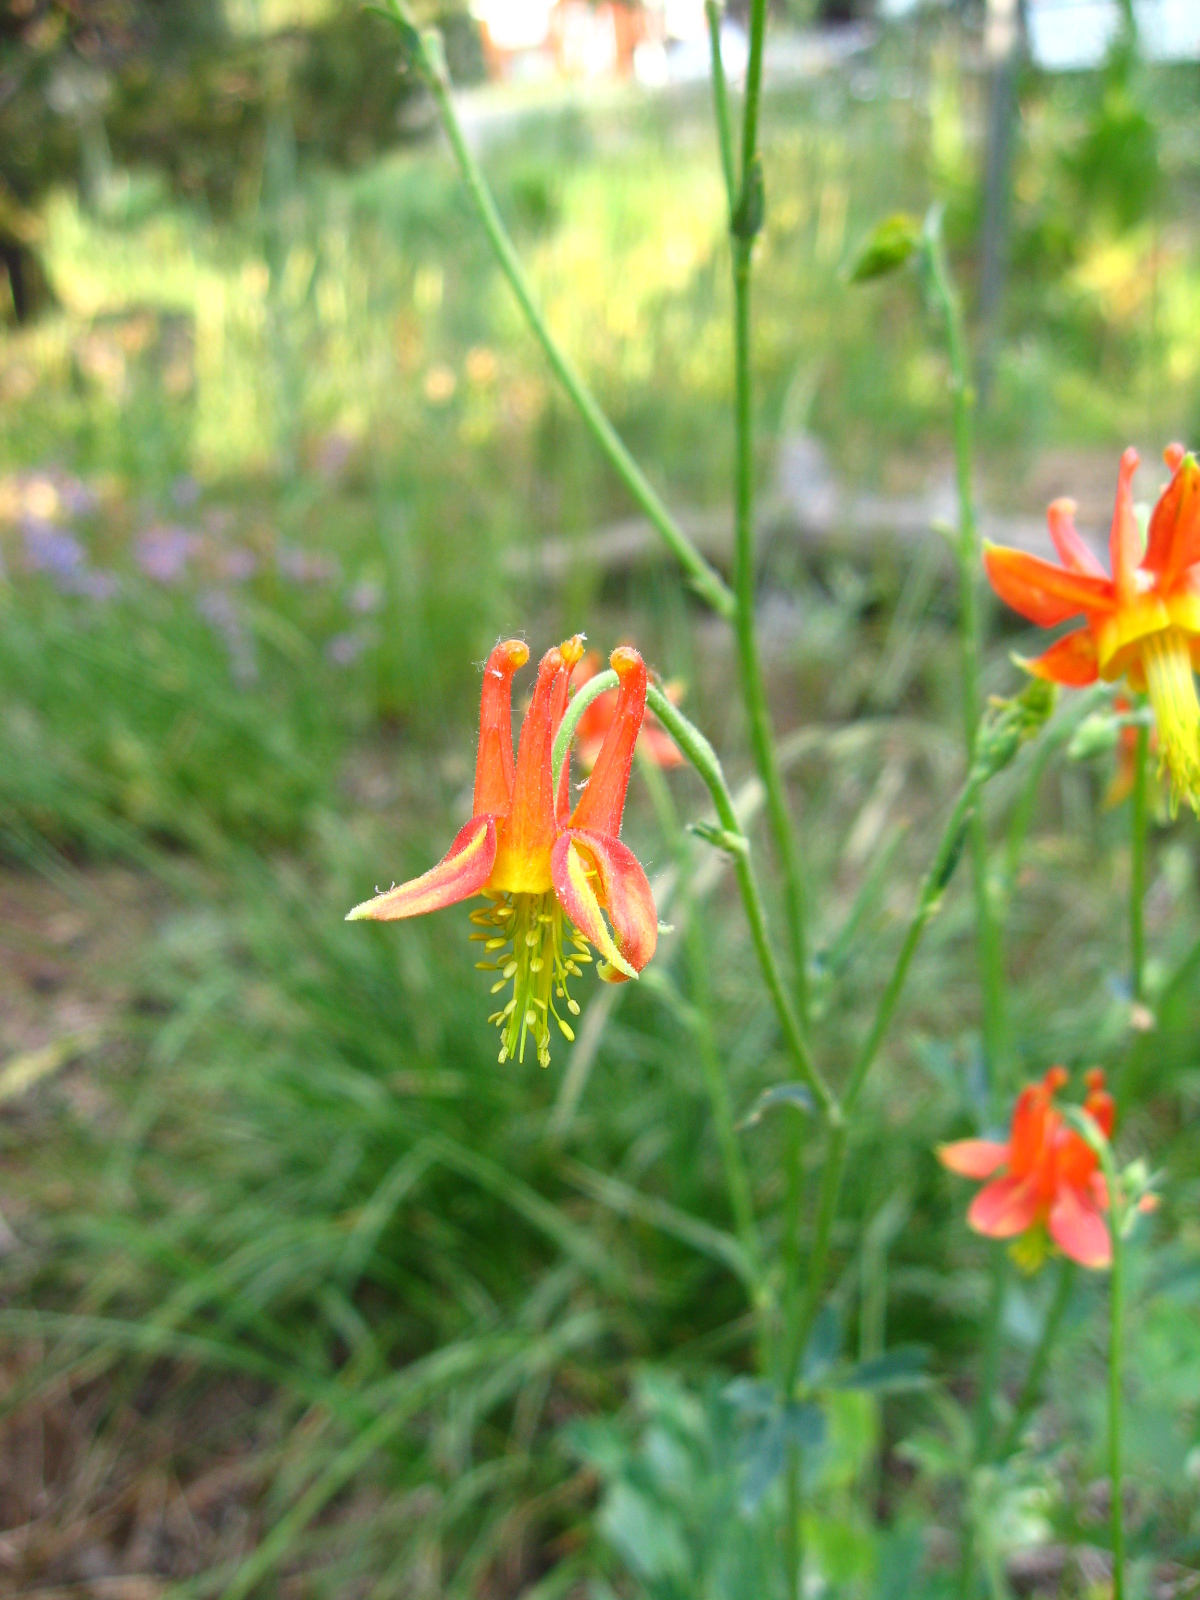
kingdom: Plantae
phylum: Tracheophyta
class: Magnoliopsida
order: Ranunculales
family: Ranunculaceae
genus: Aquilegia
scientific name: Aquilegia formosa
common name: Sitka columbine
